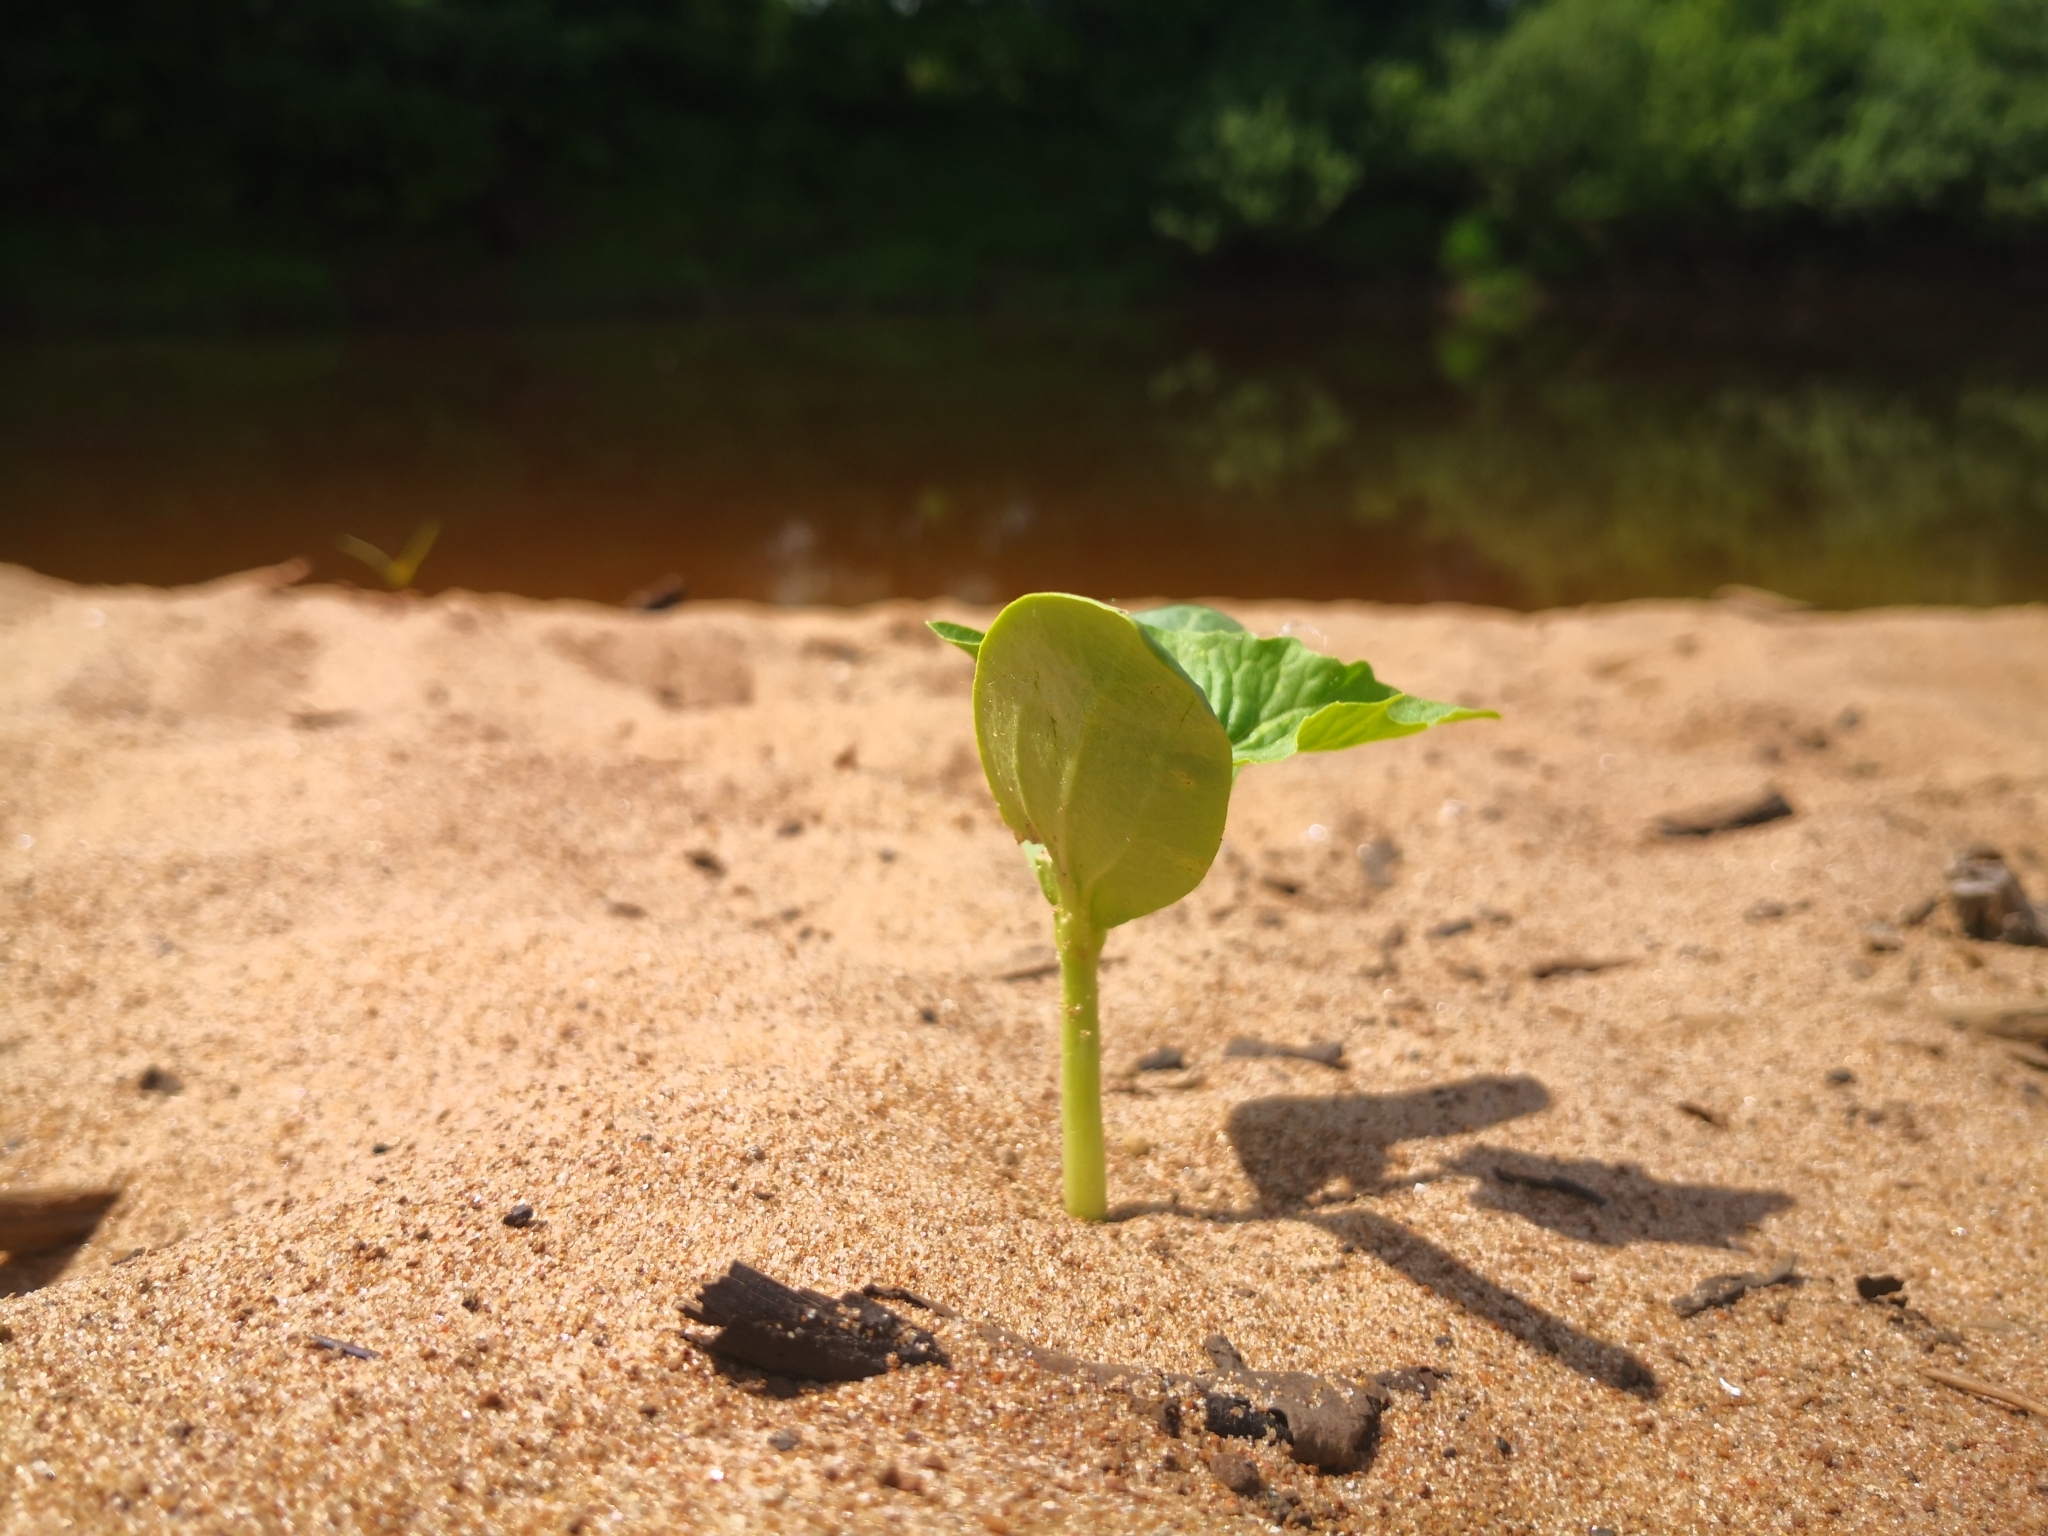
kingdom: Plantae
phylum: Tracheophyta
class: Magnoliopsida
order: Cucurbitales
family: Cucurbitaceae
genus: Echinocystis
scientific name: Echinocystis lobata
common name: Wild cucumber
